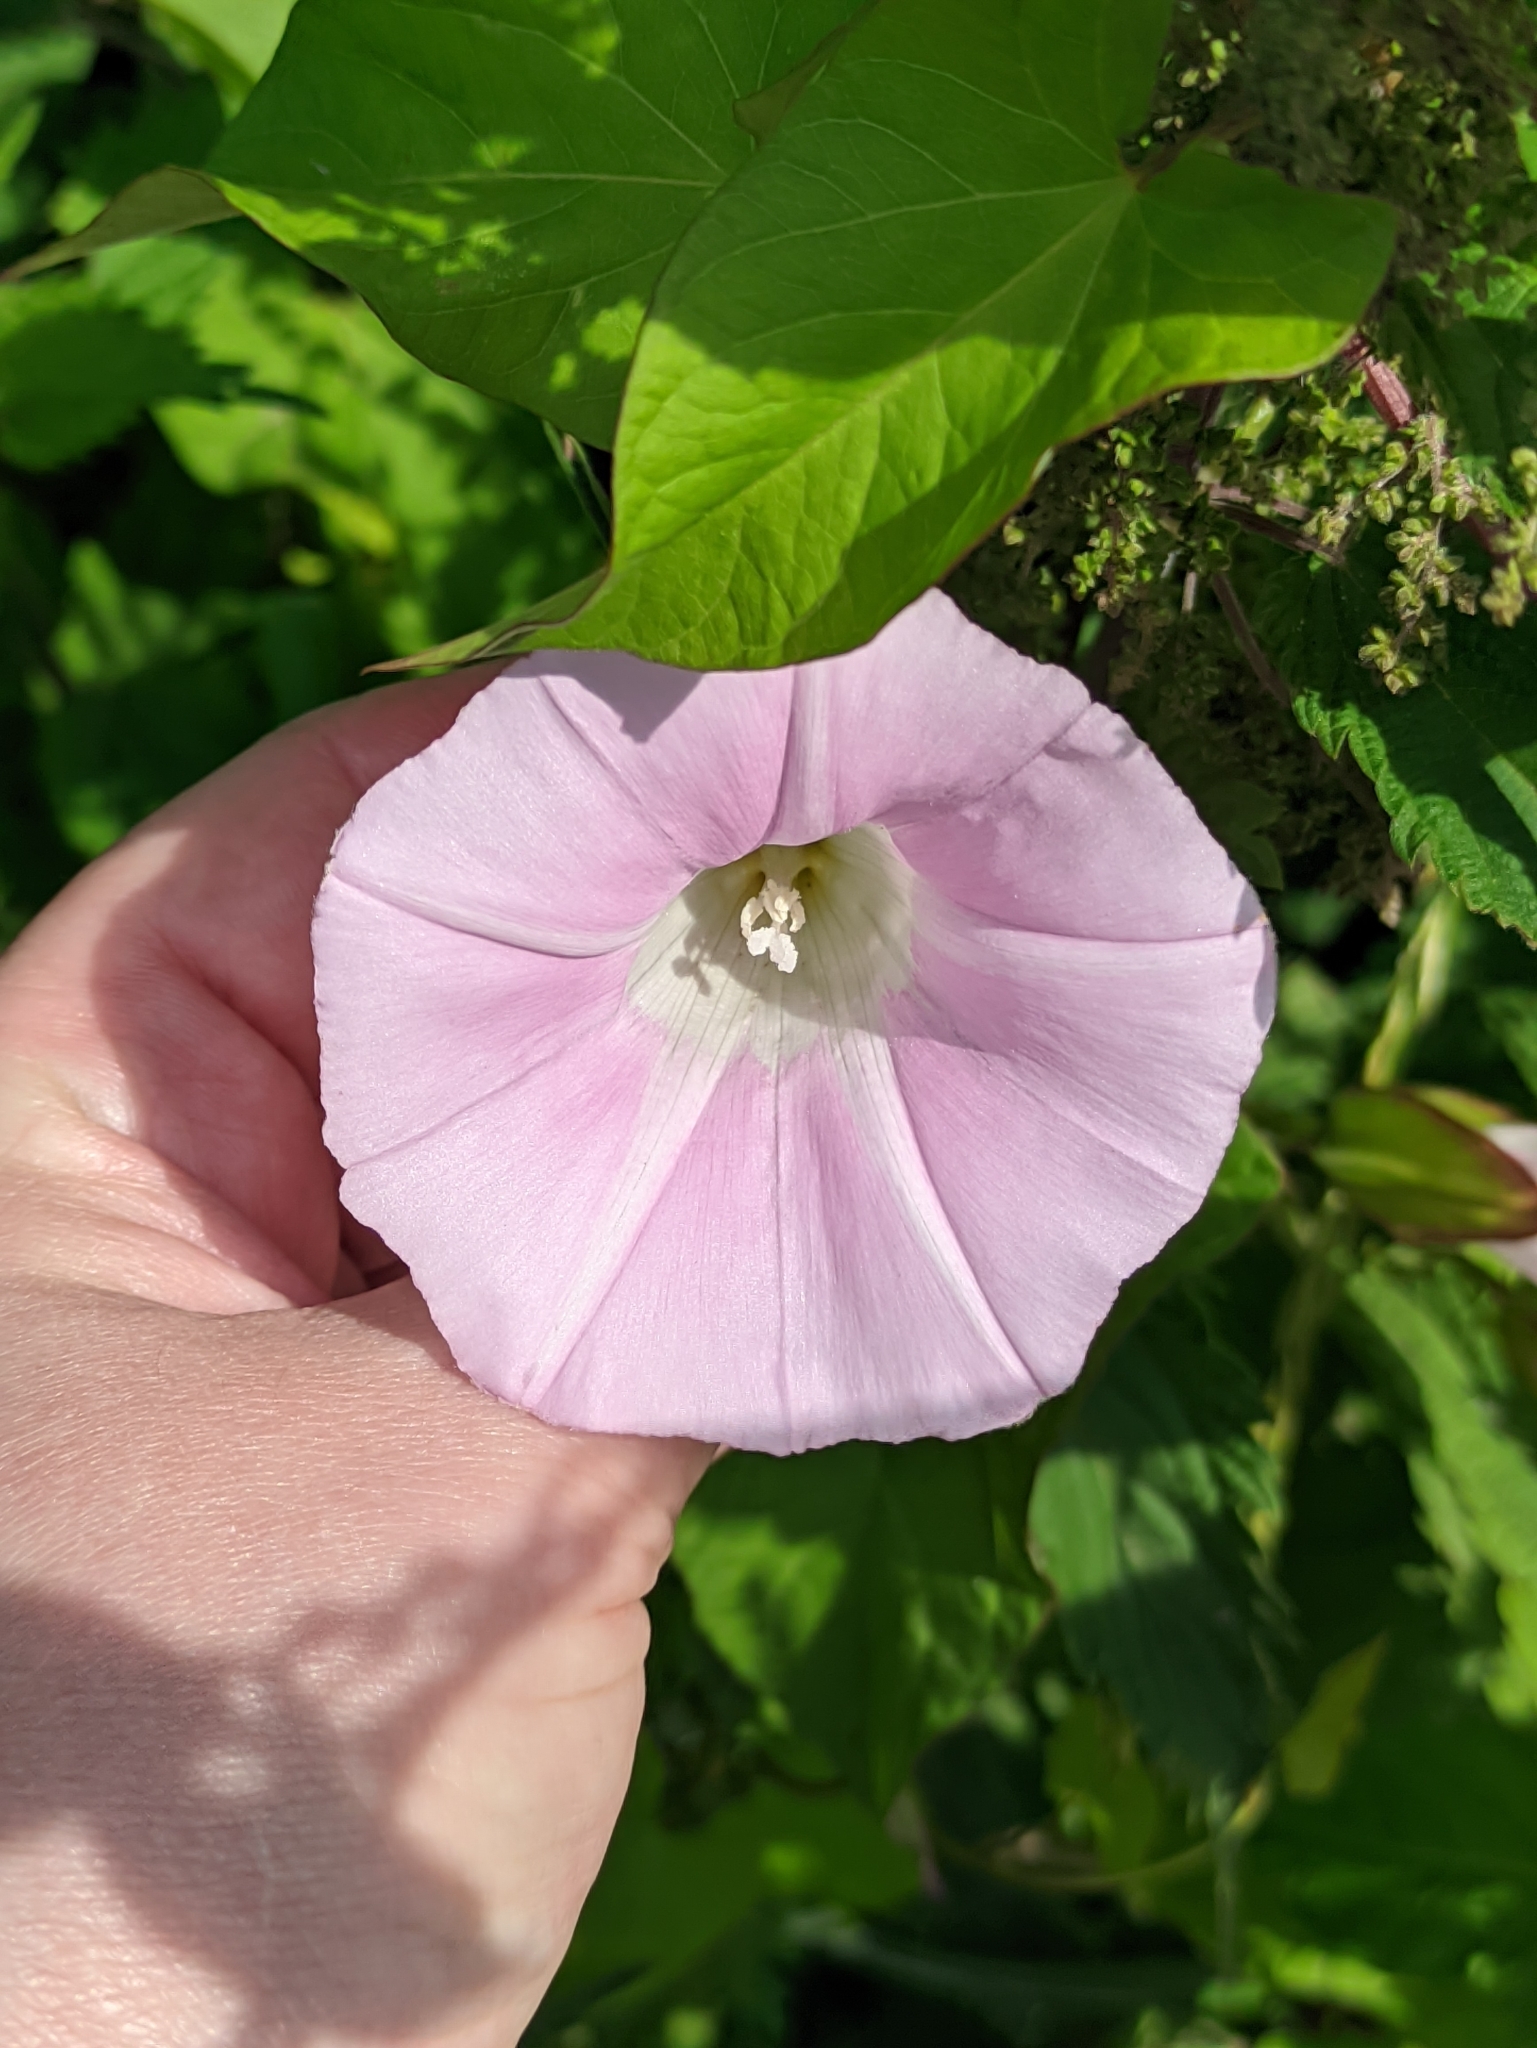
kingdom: Plantae
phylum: Tracheophyta
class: Magnoliopsida
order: Solanales
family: Convolvulaceae
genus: Calystegia
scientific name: Calystegia sepium
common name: Hedge bindweed
